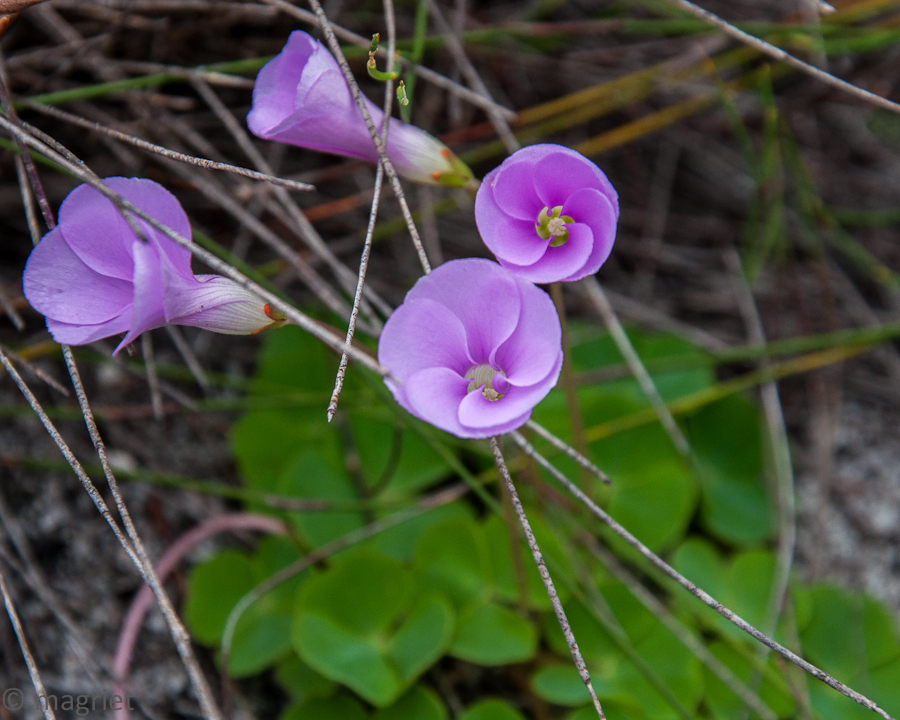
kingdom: Plantae
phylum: Tracheophyta
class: Magnoliopsida
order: Oxalidales
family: Oxalidaceae
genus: Oxalis
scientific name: Oxalis commutata
